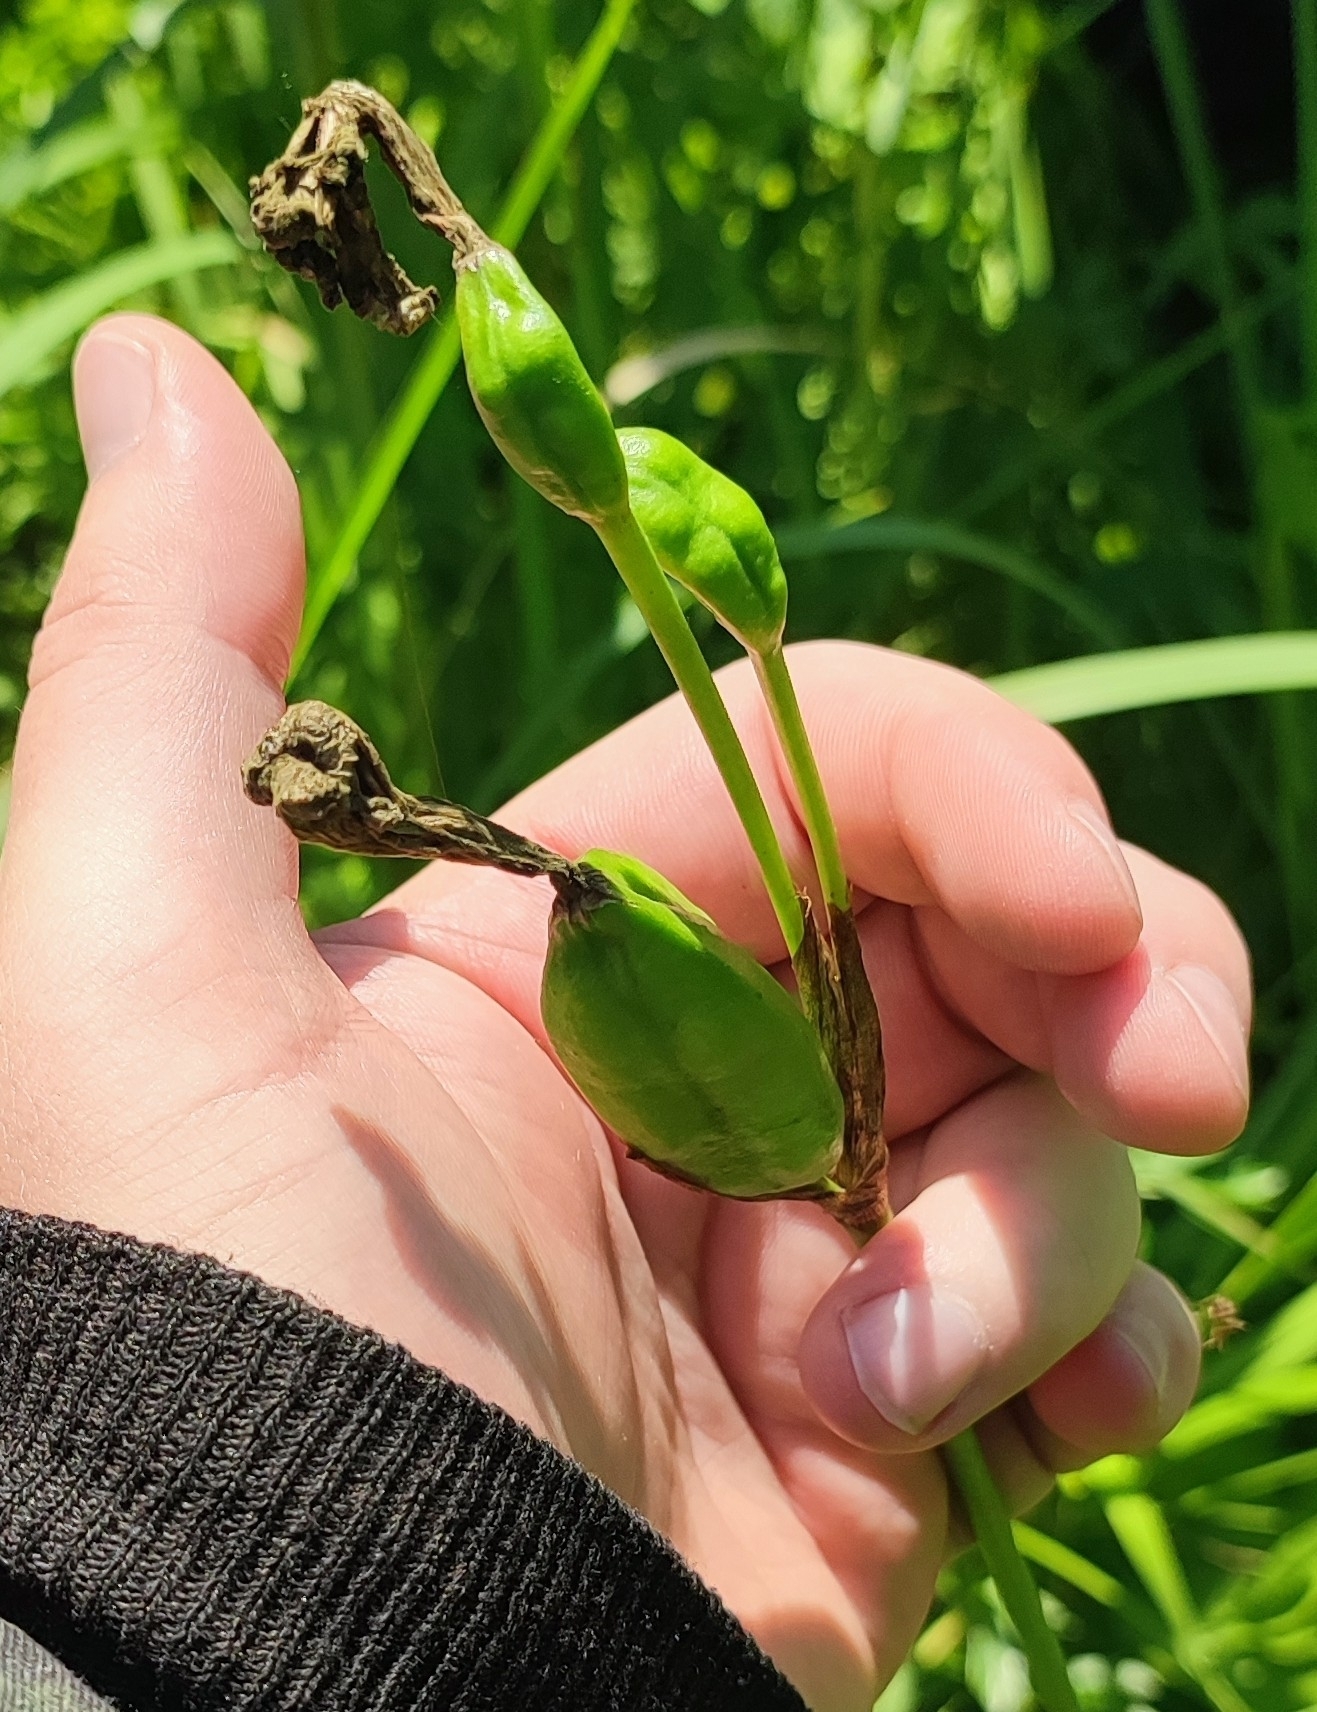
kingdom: Plantae
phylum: Tracheophyta
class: Liliopsida
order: Asparagales
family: Iridaceae
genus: Iris
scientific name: Iris sibirica
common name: Siberian iris
